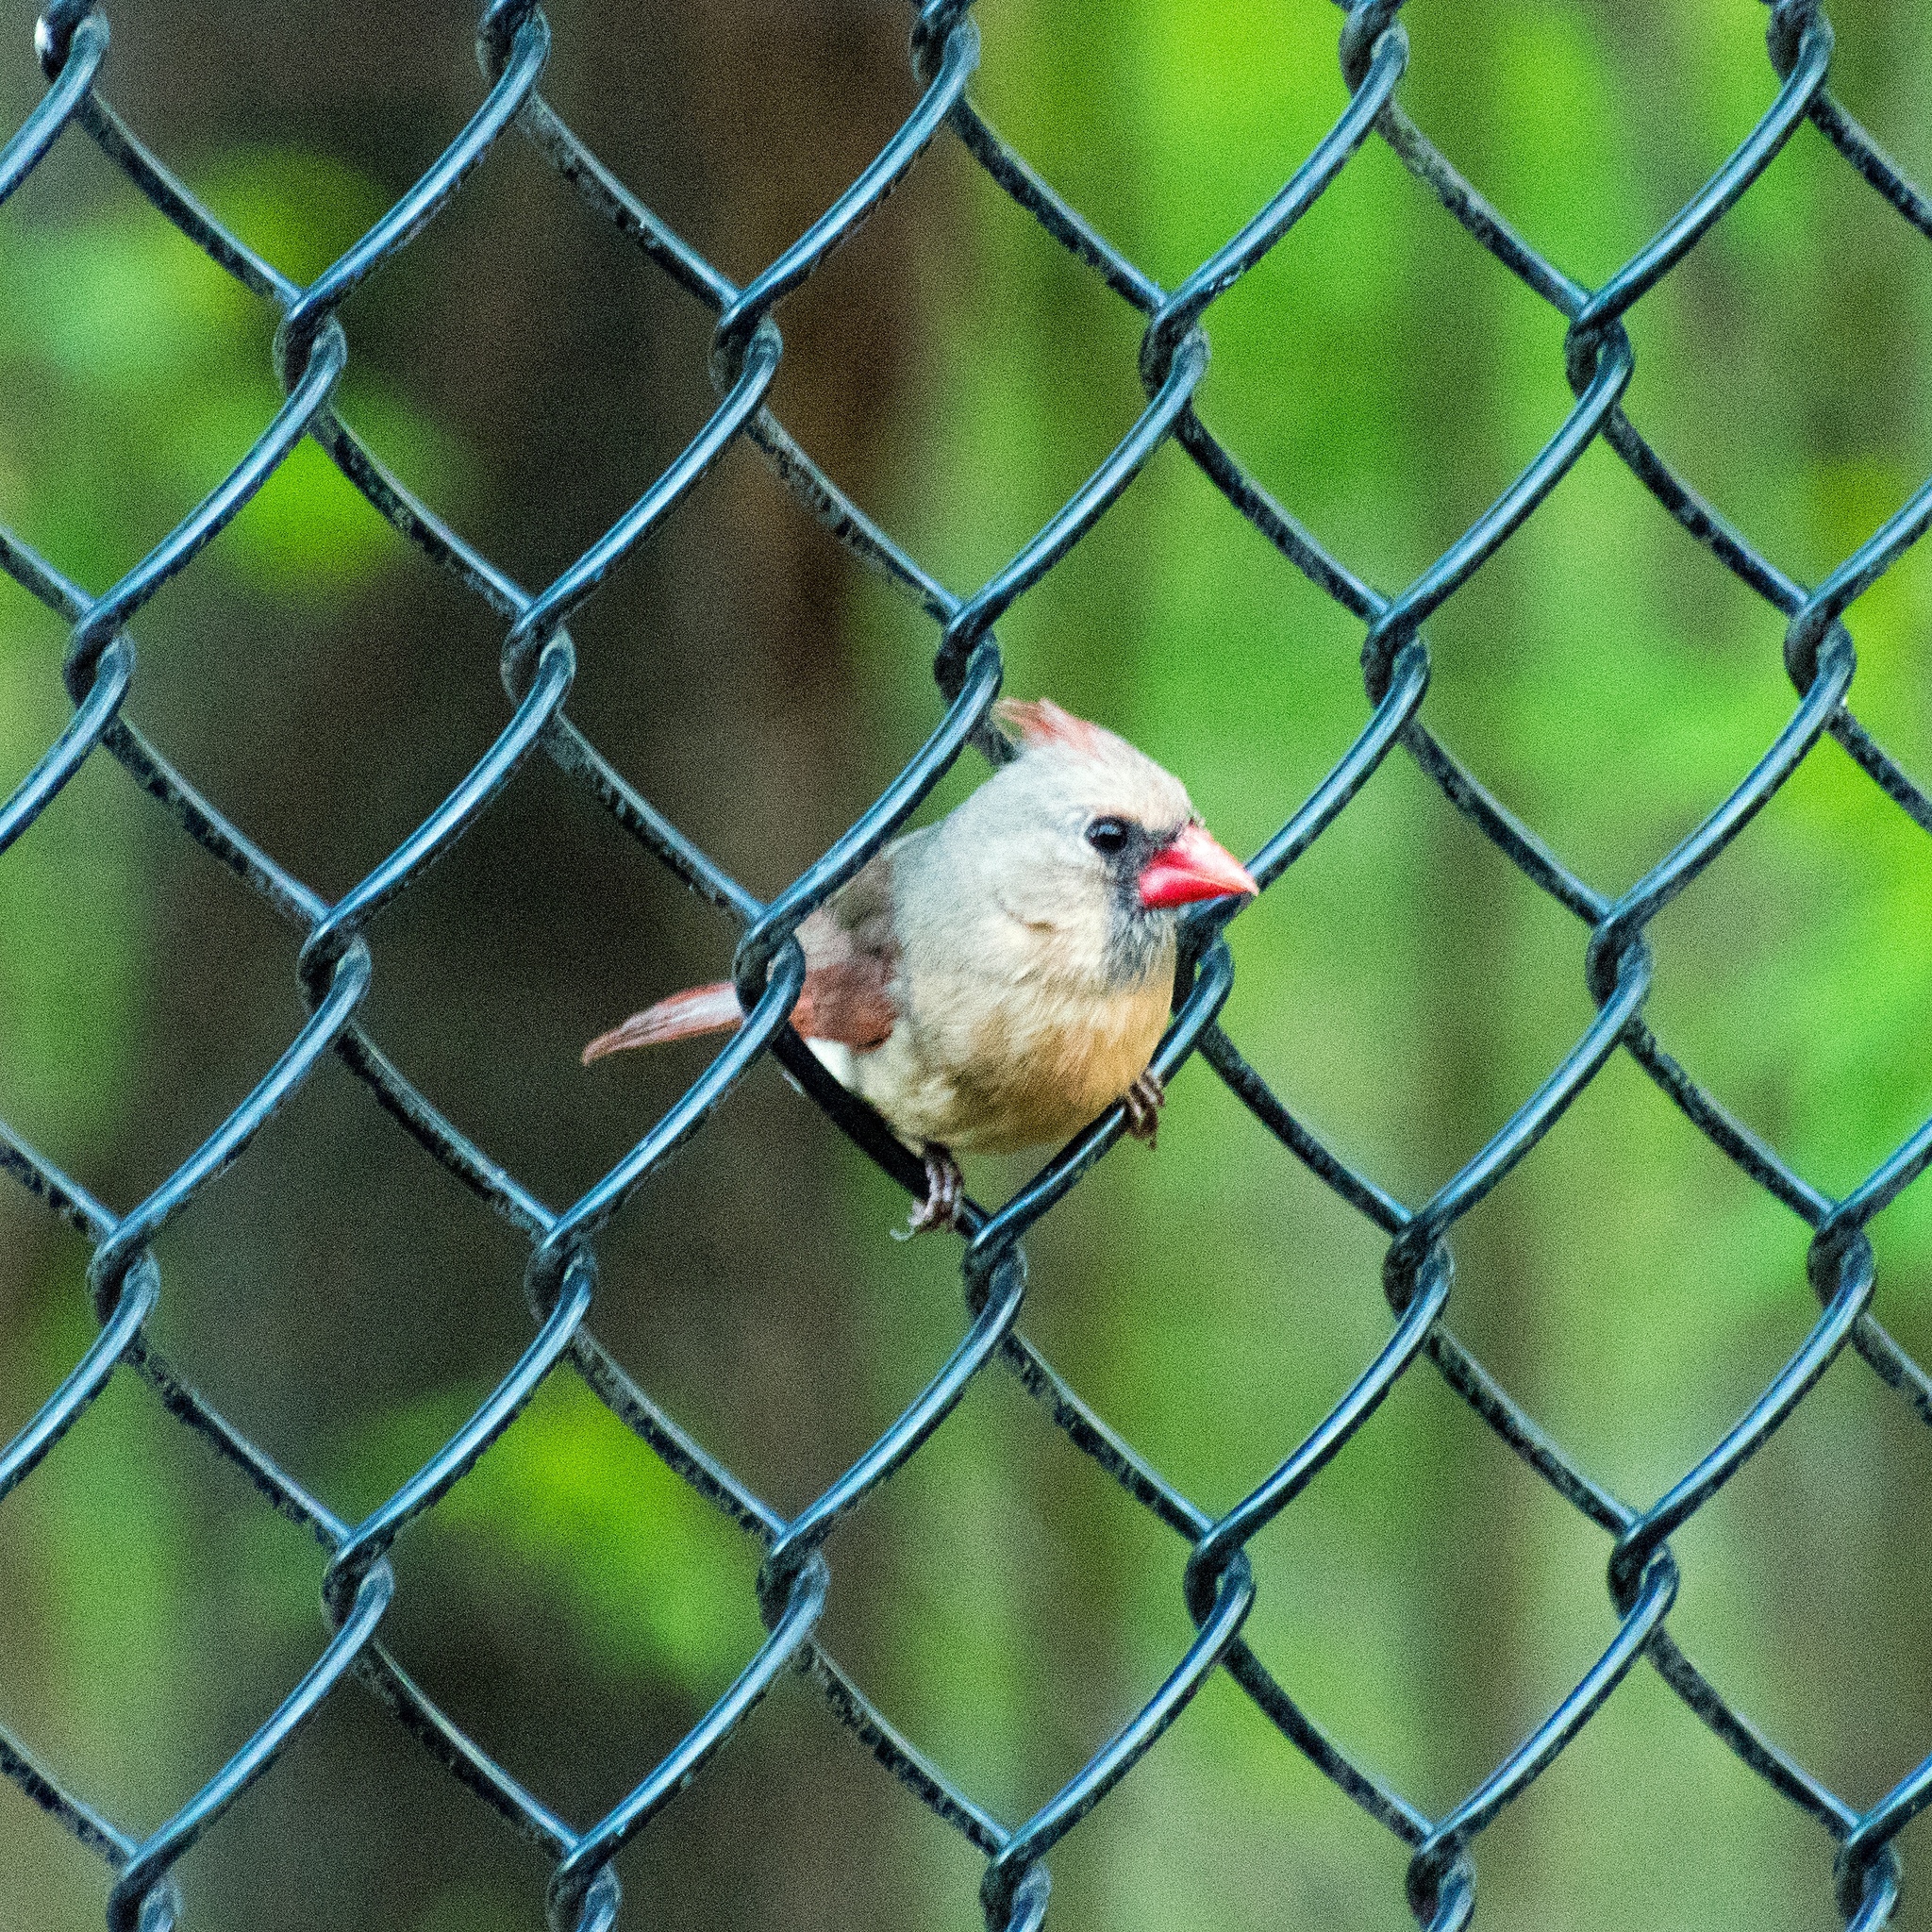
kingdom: Animalia
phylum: Chordata
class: Aves
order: Passeriformes
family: Cardinalidae
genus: Cardinalis
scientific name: Cardinalis cardinalis
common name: Northern cardinal
